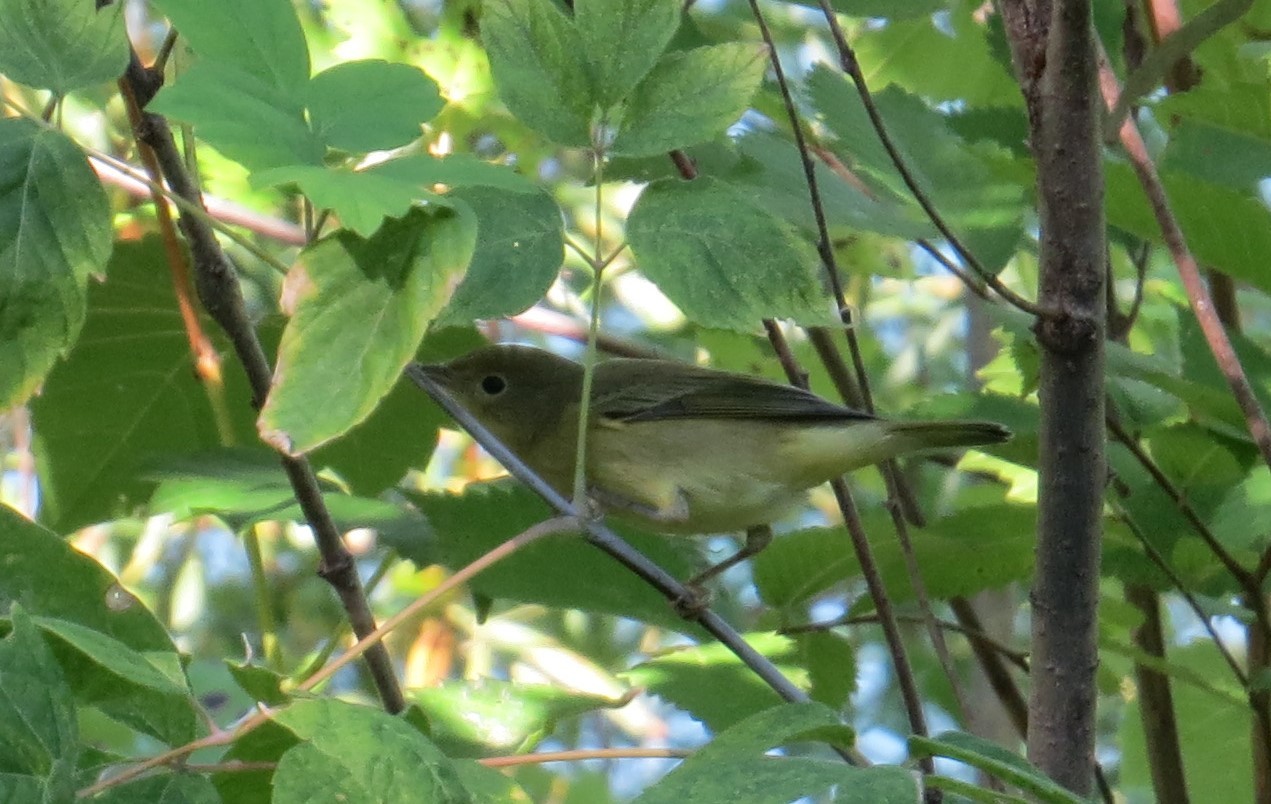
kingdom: Animalia
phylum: Chordata
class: Aves
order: Passeriformes
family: Parulidae
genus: Setophaga
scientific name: Setophaga petechia
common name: Yellow warbler
